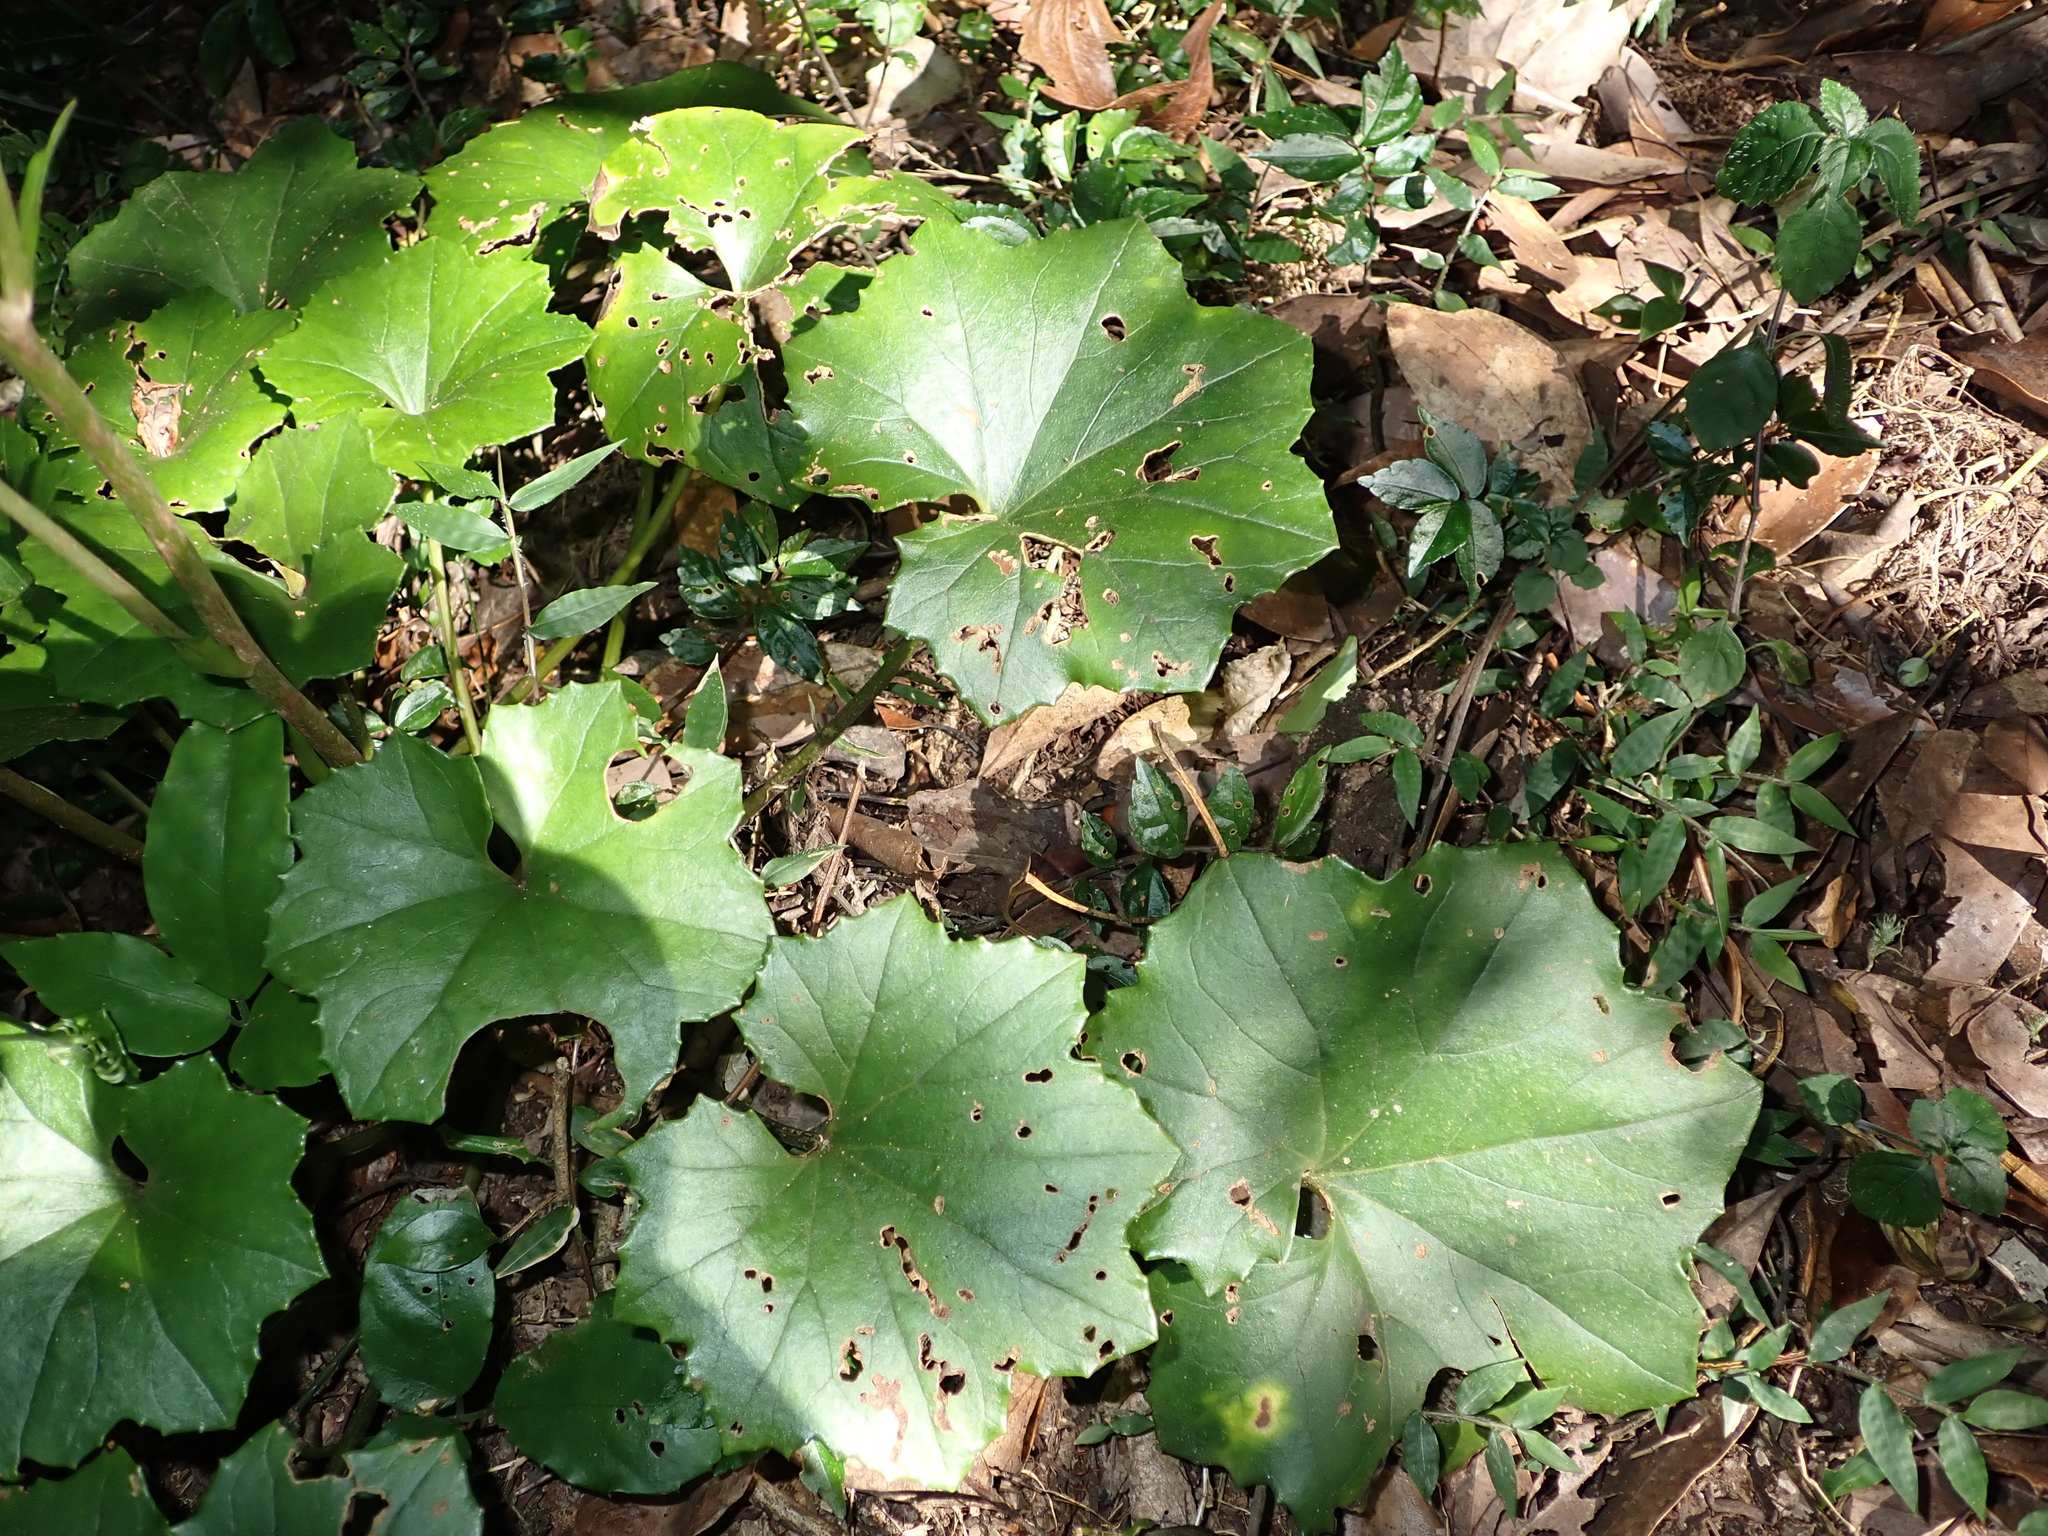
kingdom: Plantae
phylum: Tracheophyta
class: Magnoliopsida
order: Asterales
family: Asteraceae
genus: Farfugium
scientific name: Farfugium japonicum
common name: Leopardplant
